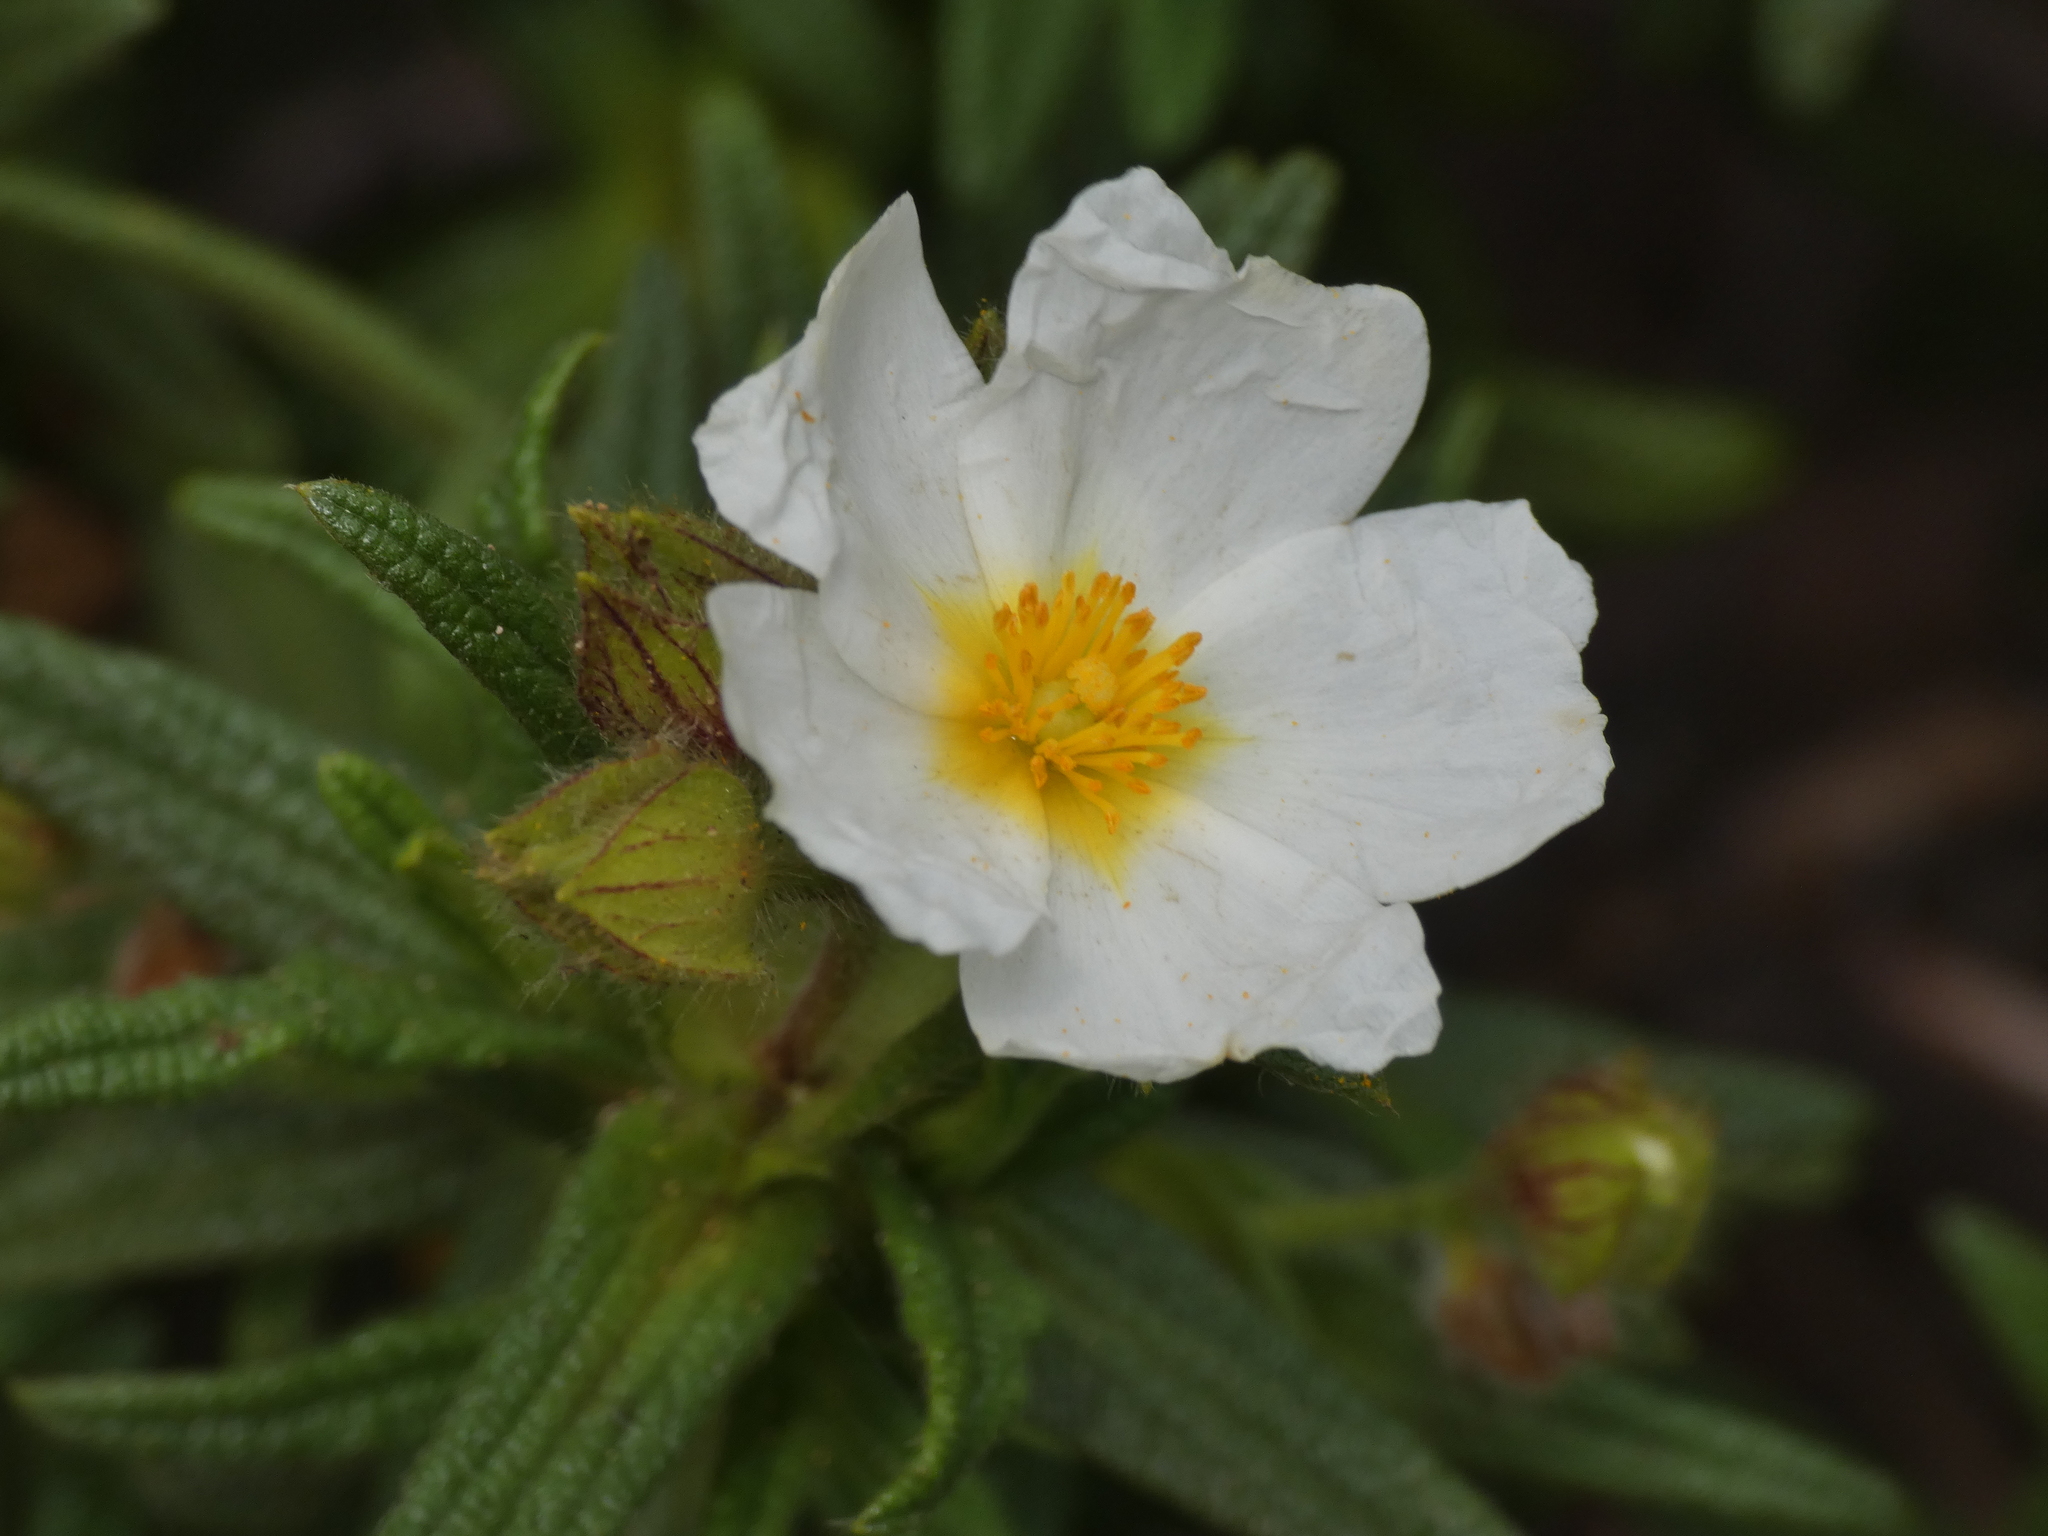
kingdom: Plantae
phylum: Tracheophyta
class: Magnoliopsida
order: Malvales
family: Cistaceae
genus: Cistus
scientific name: Cistus monspeliensis
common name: Montpelier cistus
